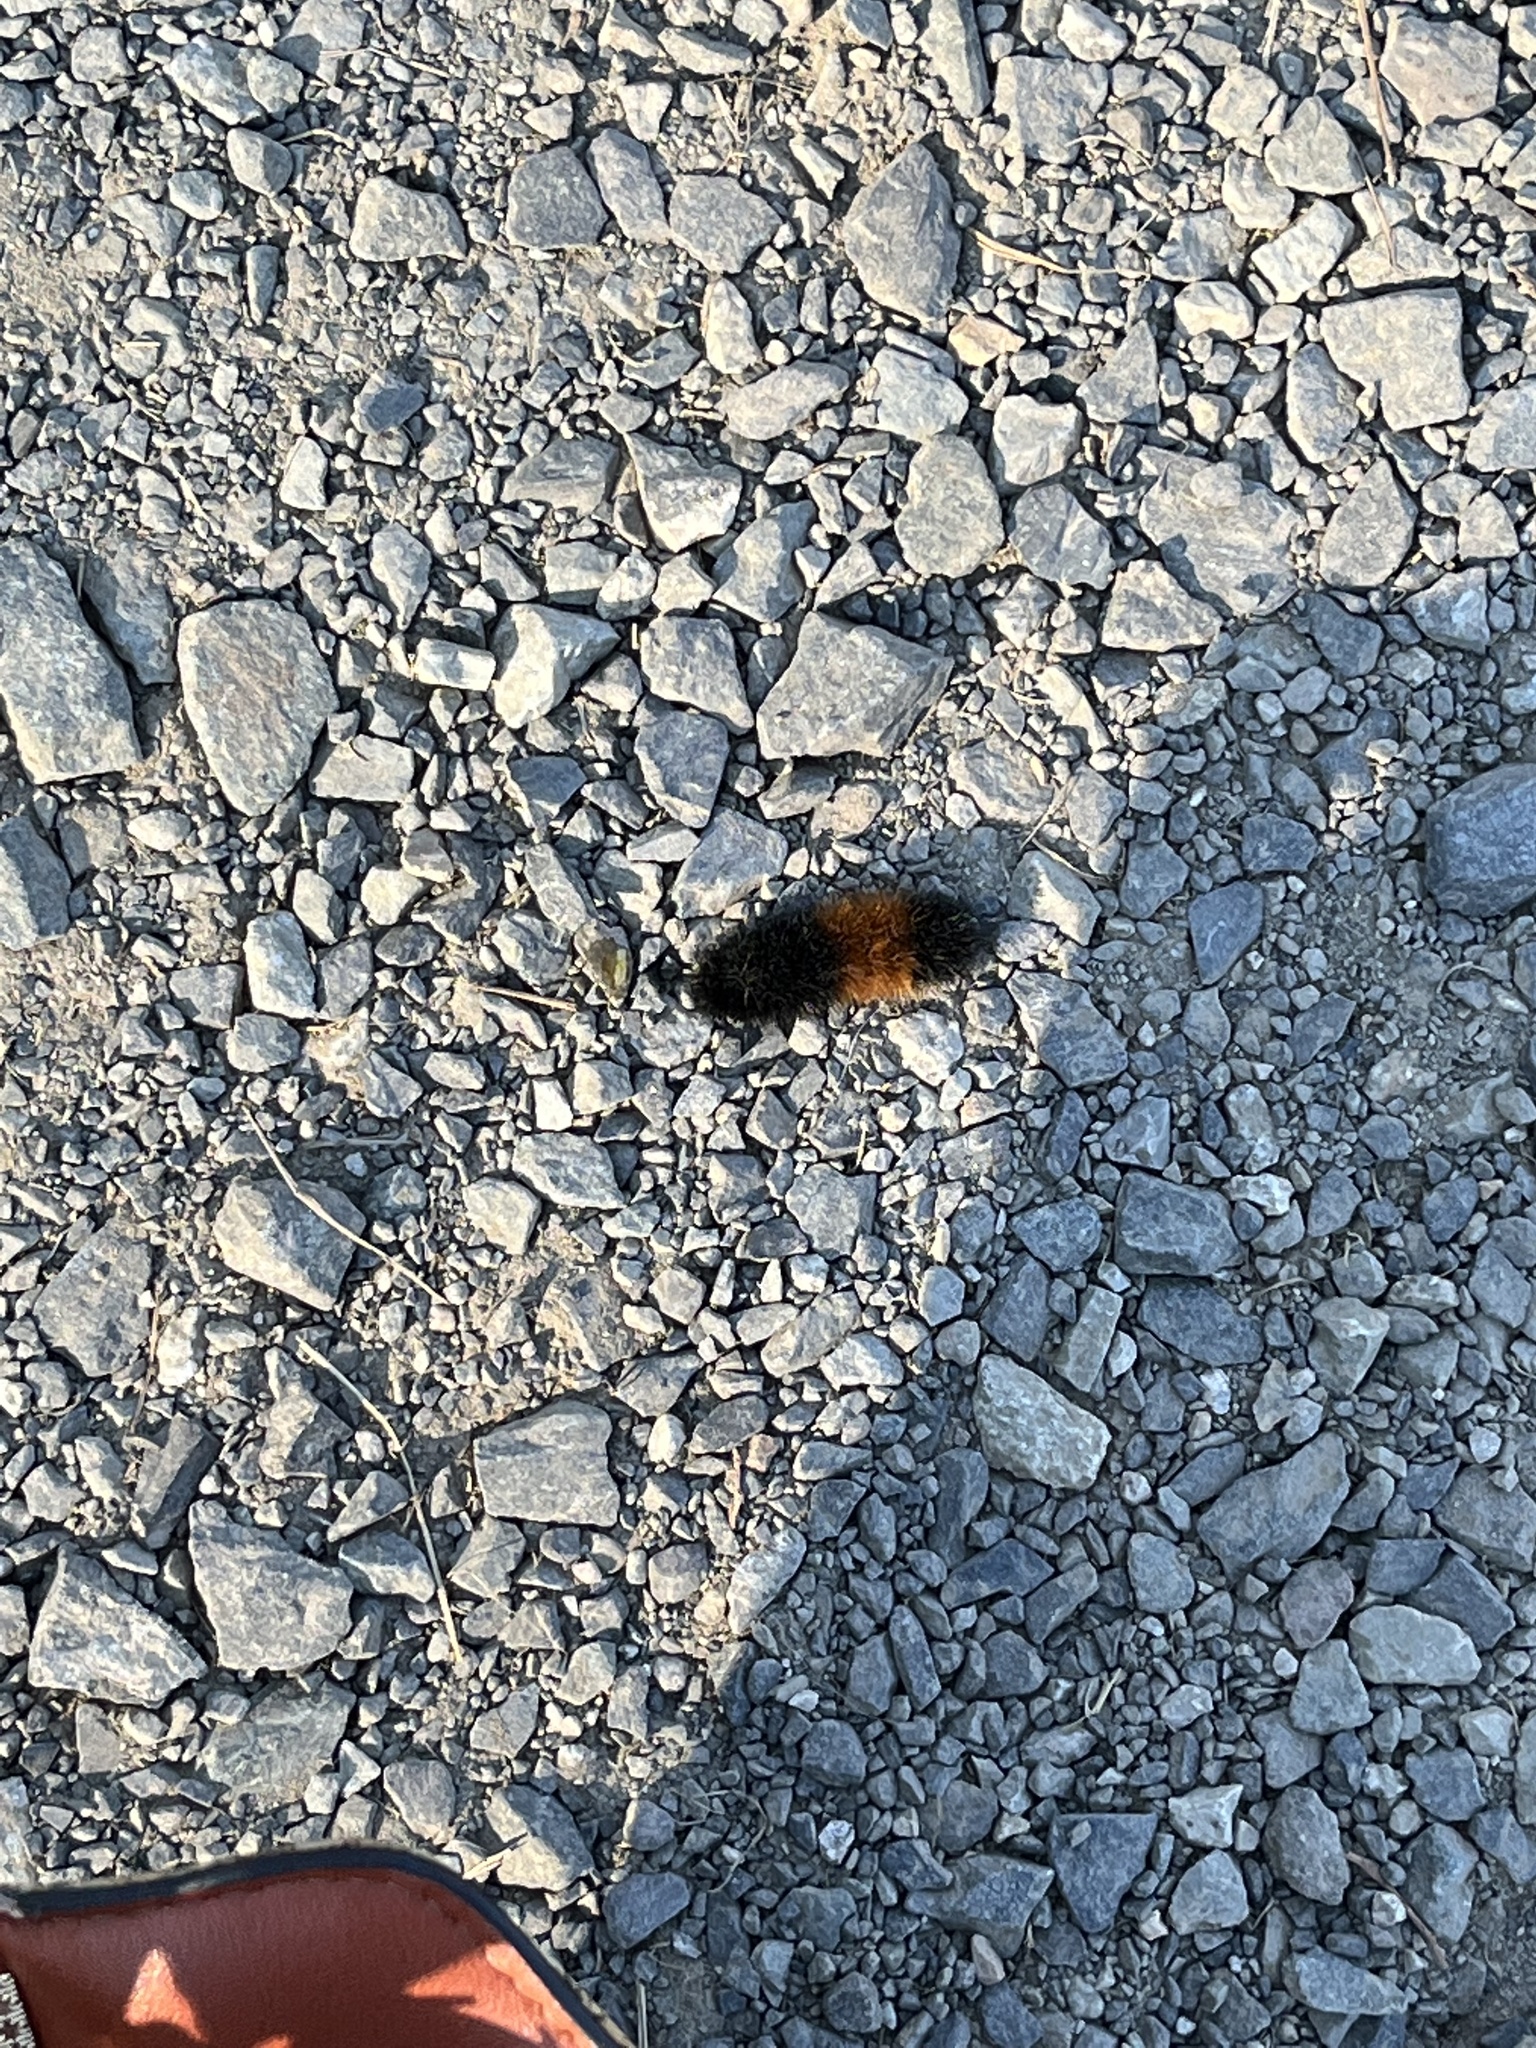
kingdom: Animalia
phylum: Arthropoda
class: Insecta
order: Lepidoptera
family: Erebidae
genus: Pyrrharctia
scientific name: Pyrrharctia isabella
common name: Isabella tiger moth
